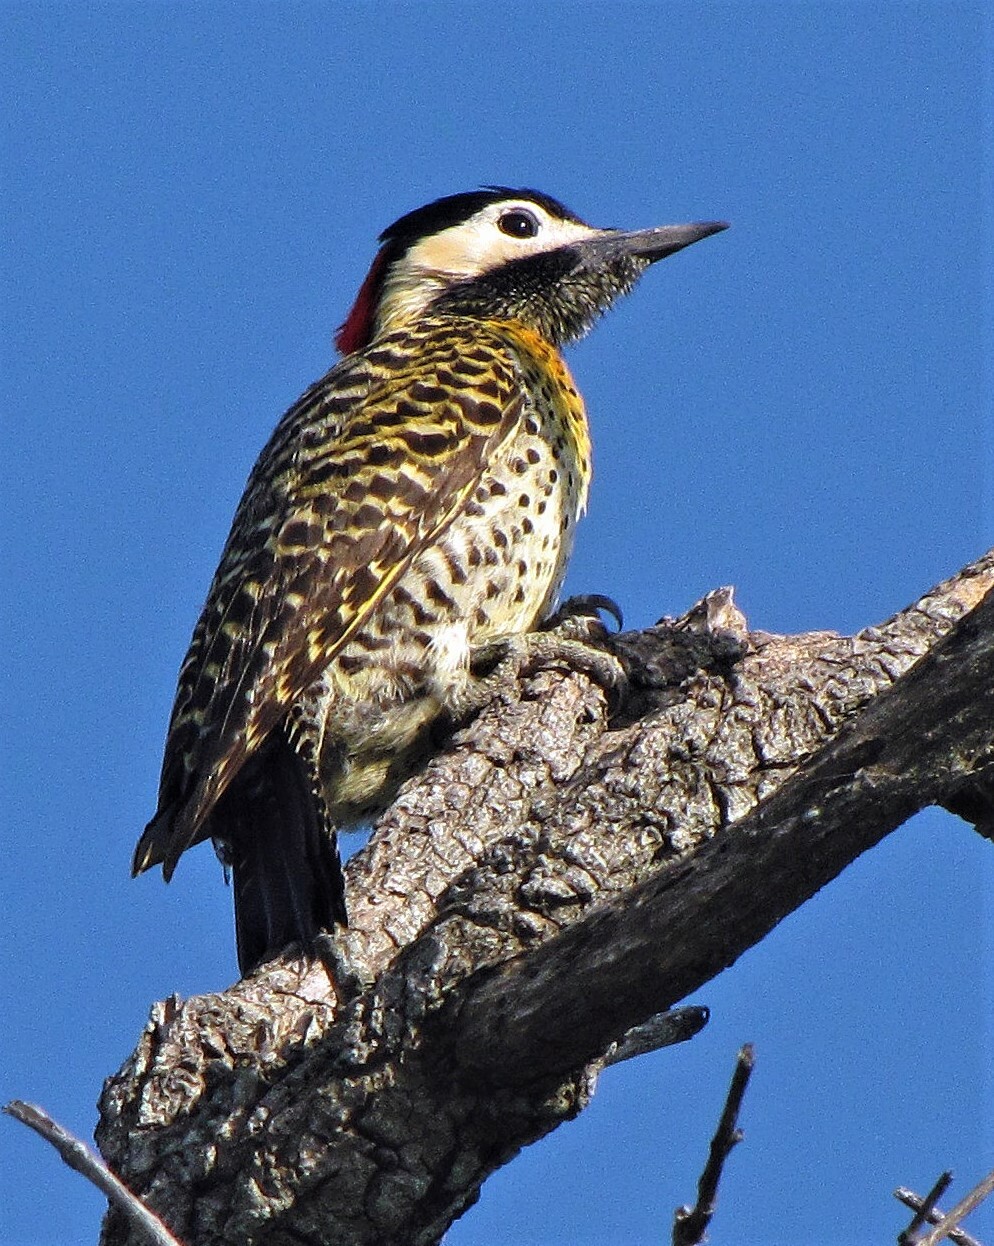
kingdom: Animalia
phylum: Chordata
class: Aves
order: Piciformes
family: Picidae
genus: Colaptes
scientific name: Colaptes melanochloros
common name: Green-barred woodpecker
